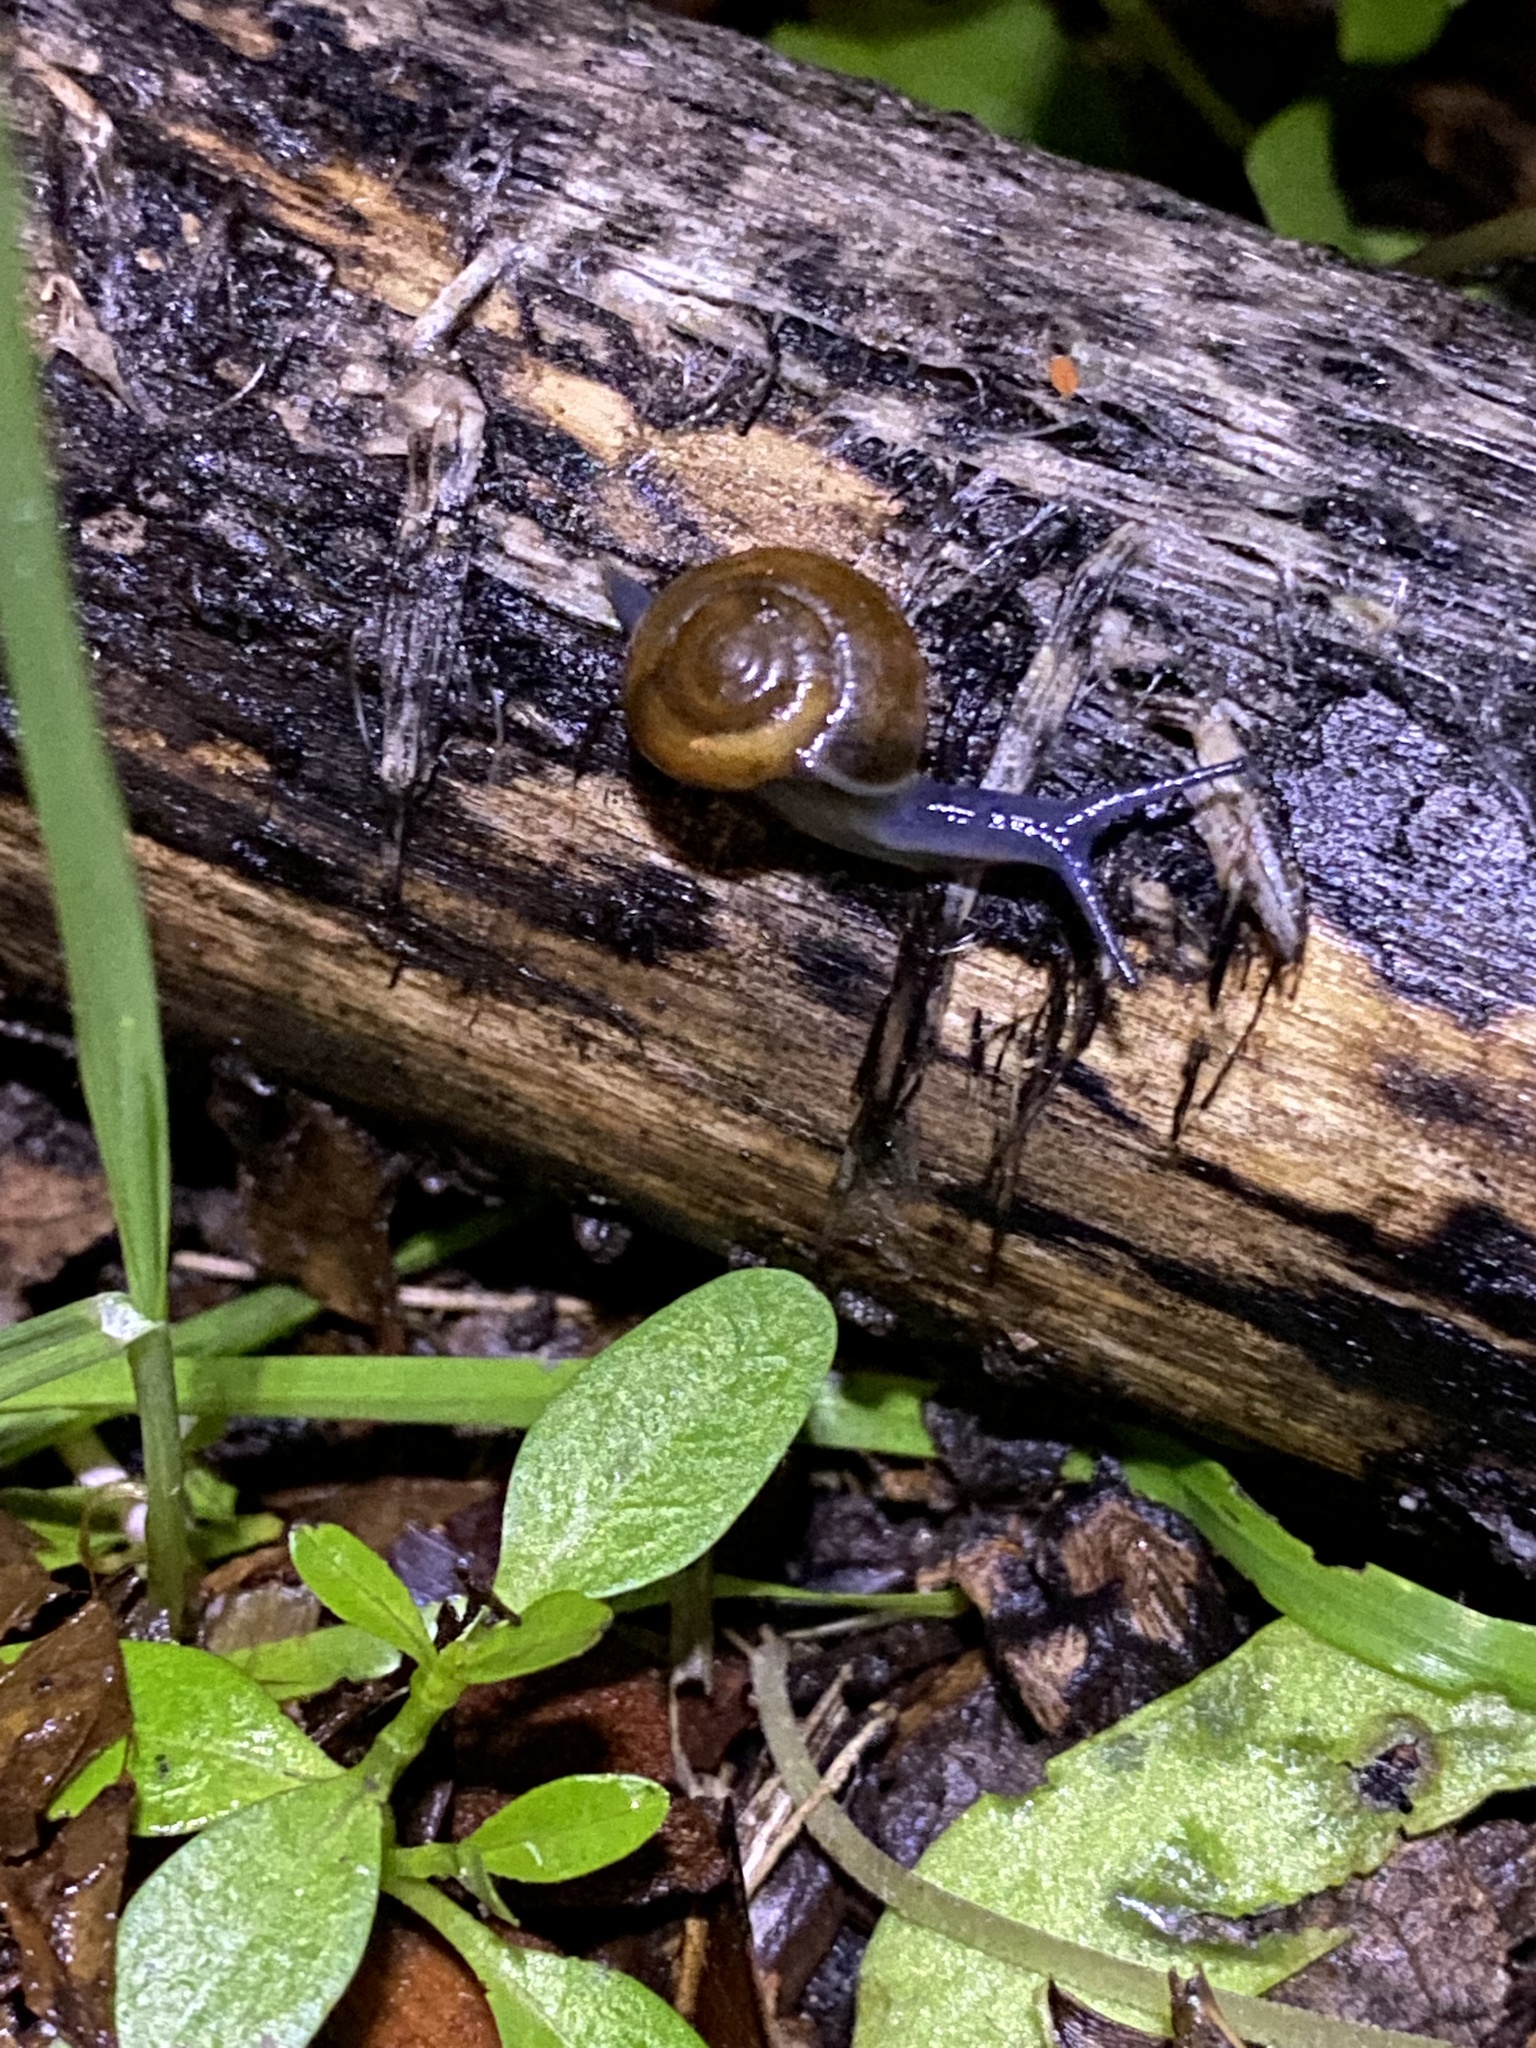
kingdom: Animalia
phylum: Mollusca
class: Gastropoda
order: Stylommatophora
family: Oxychilidae
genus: Oxychilus
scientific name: Oxychilus draparnaudi
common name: Draparnaud's glass snail
